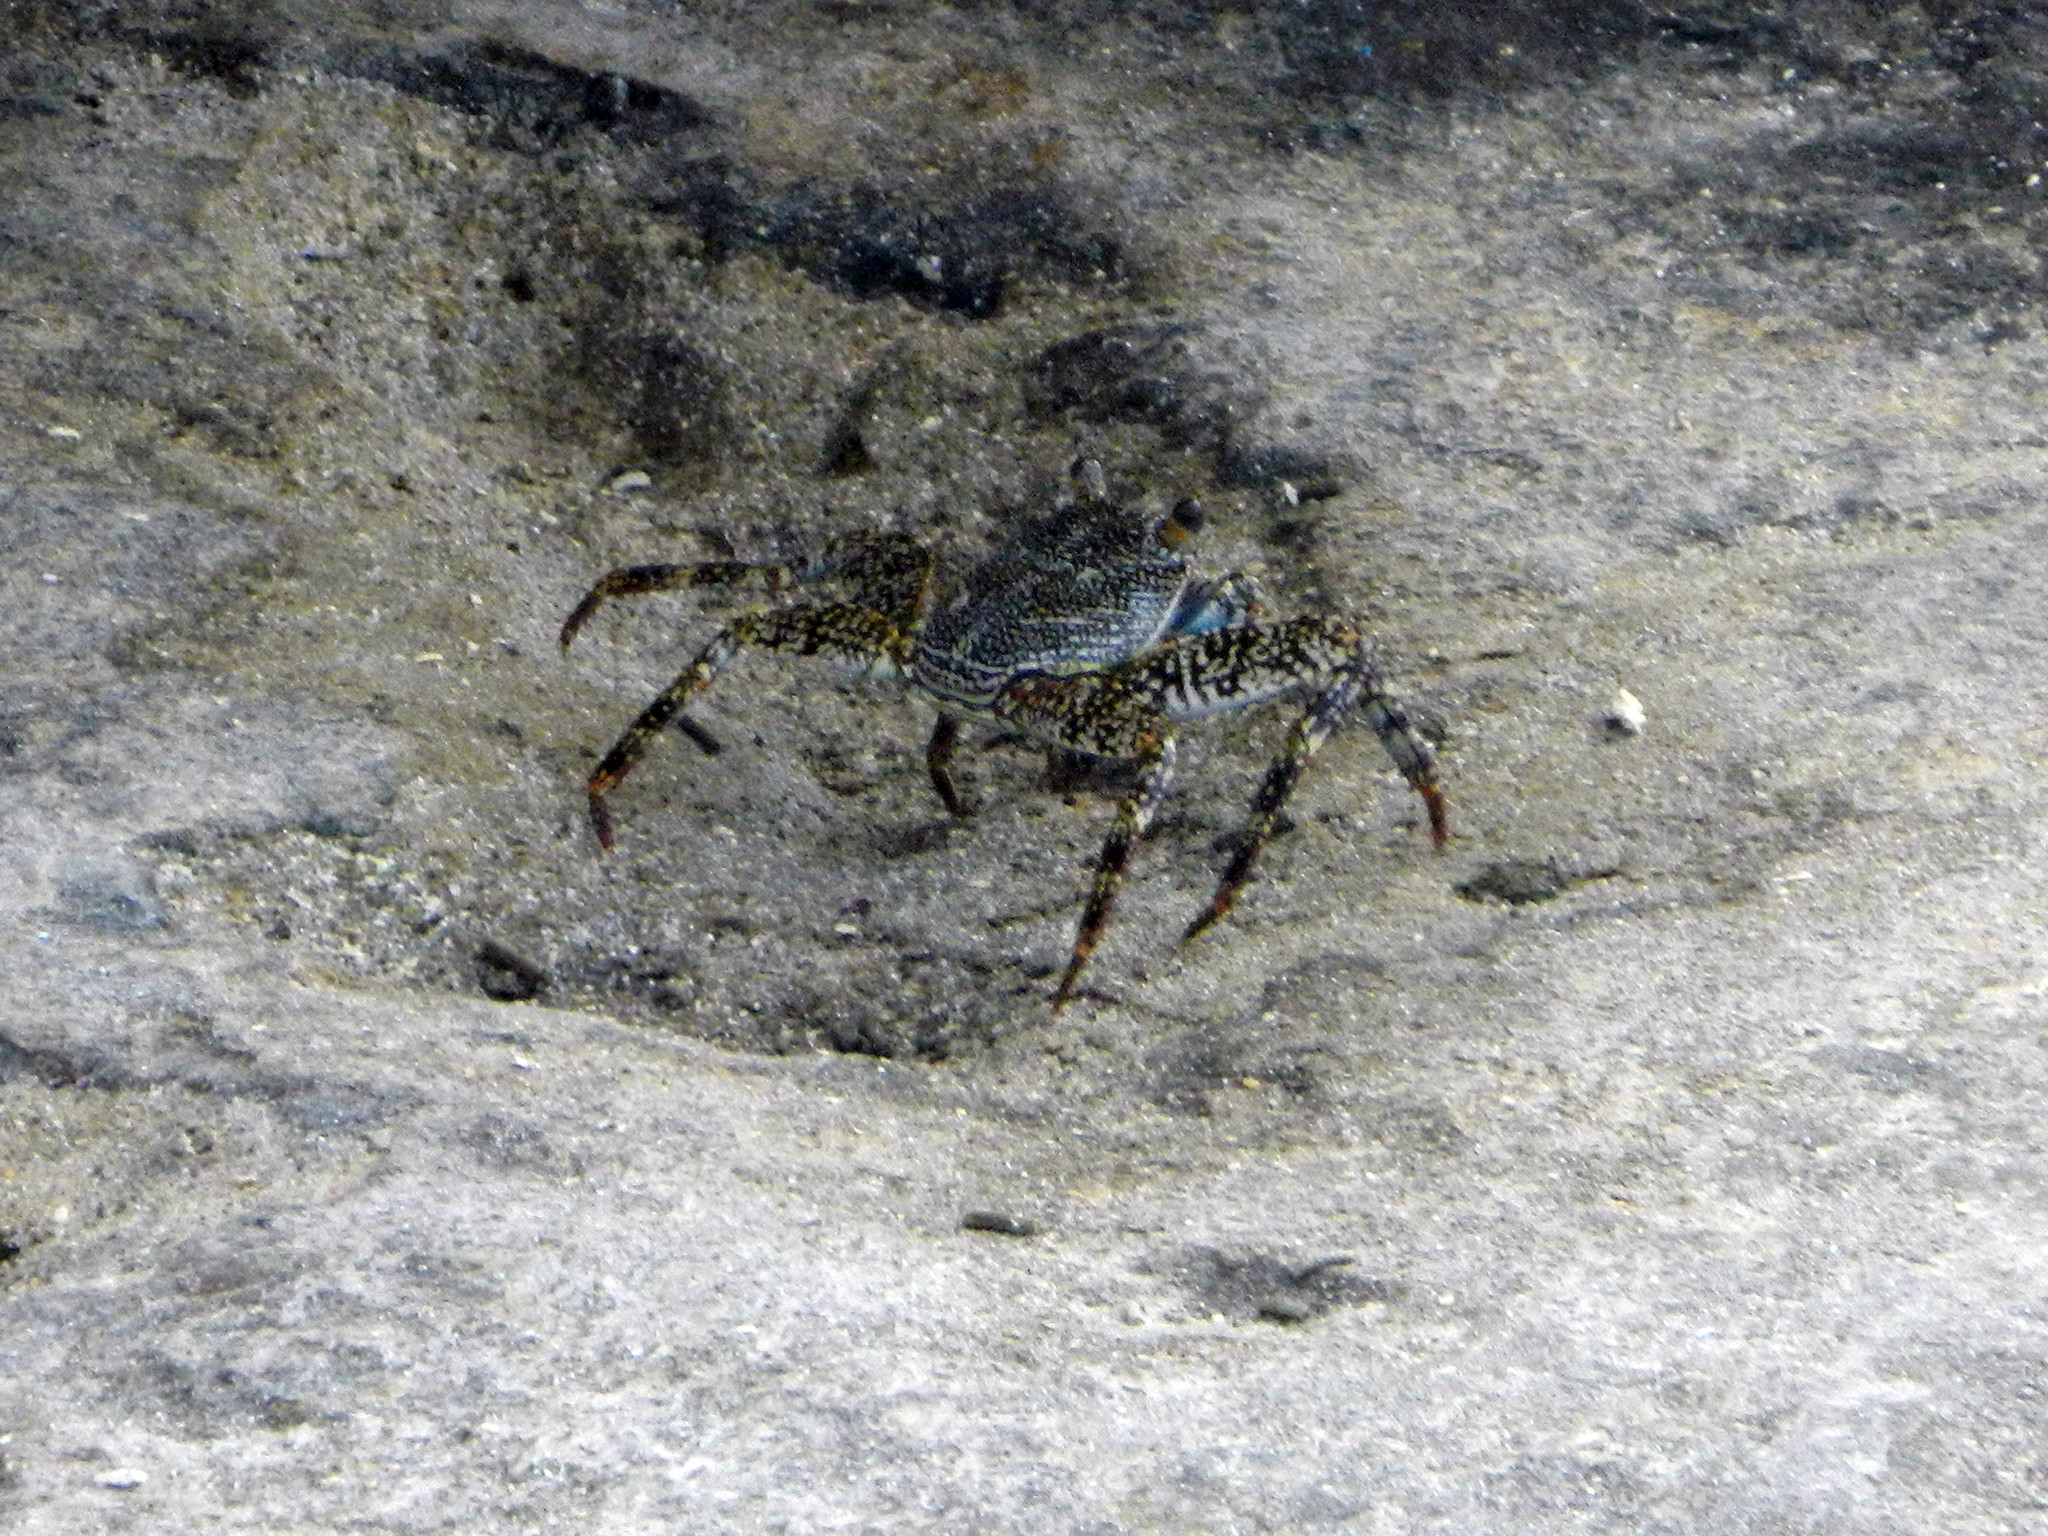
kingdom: Animalia
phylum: Arthropoda
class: Malacostraca
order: Decapoda
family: Grapsidae
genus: Grapsus
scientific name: Grapsus grapsus
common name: Sally lightfoot
